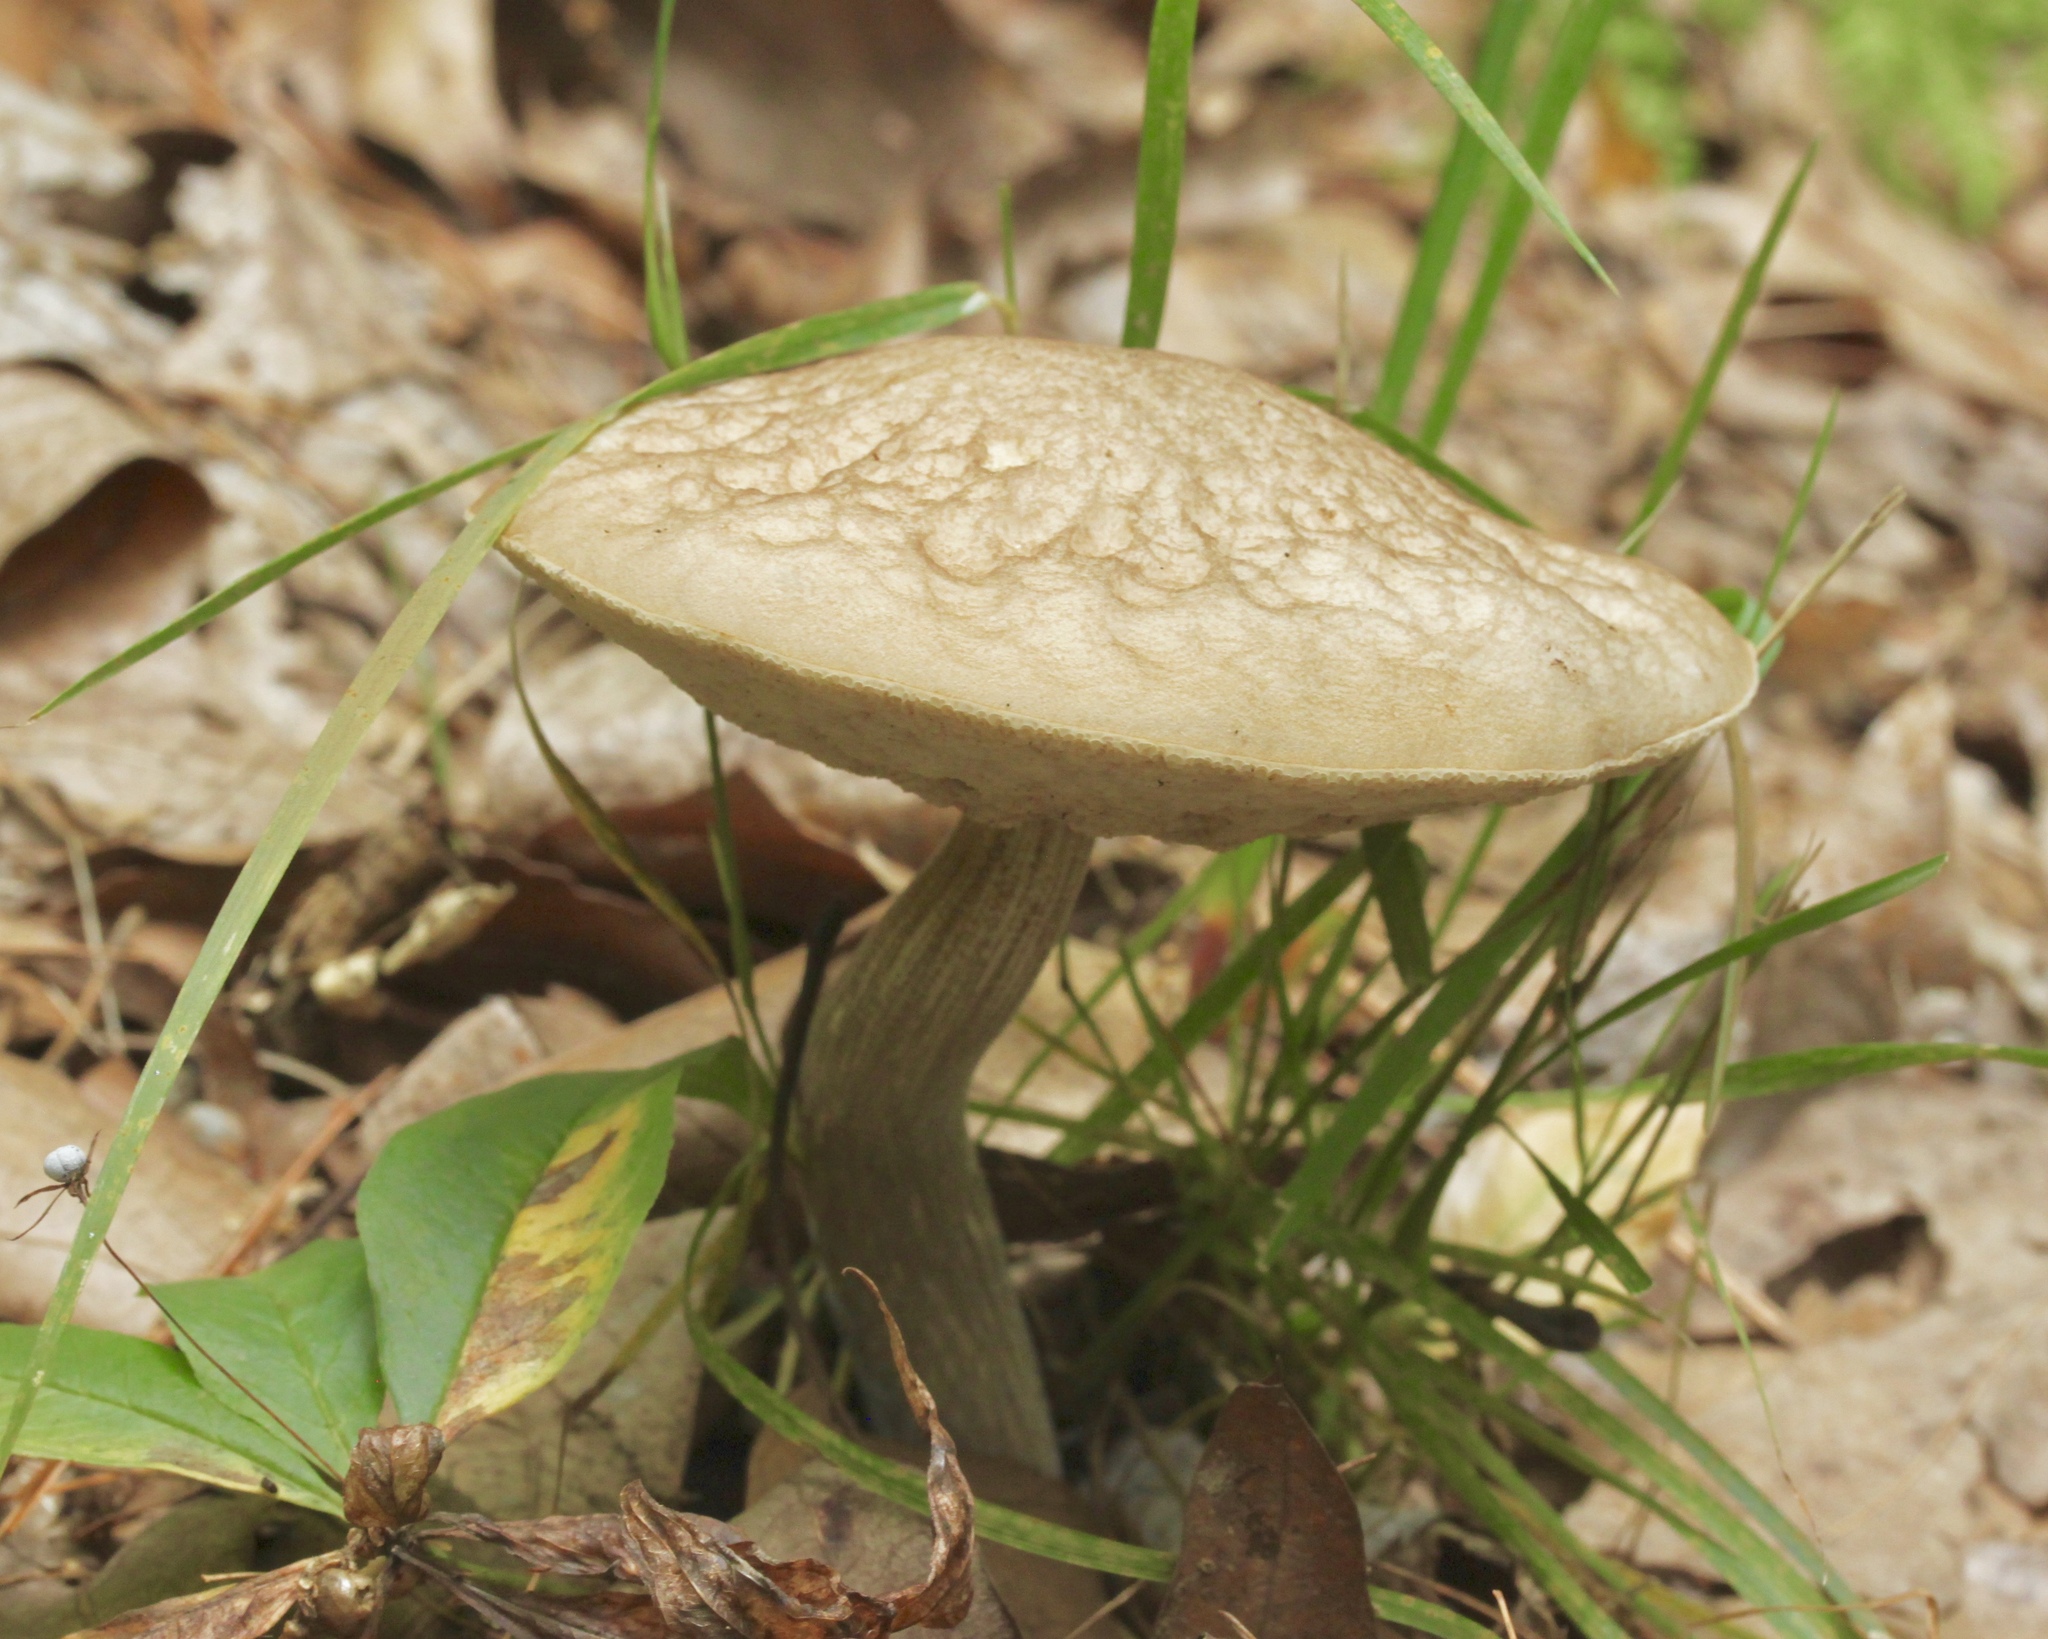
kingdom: Fungi
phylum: Basidiomycota
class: Agaricomycetes
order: Boletales
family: Boletaceae
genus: Leccinellum
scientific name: Leccinellum albellum
